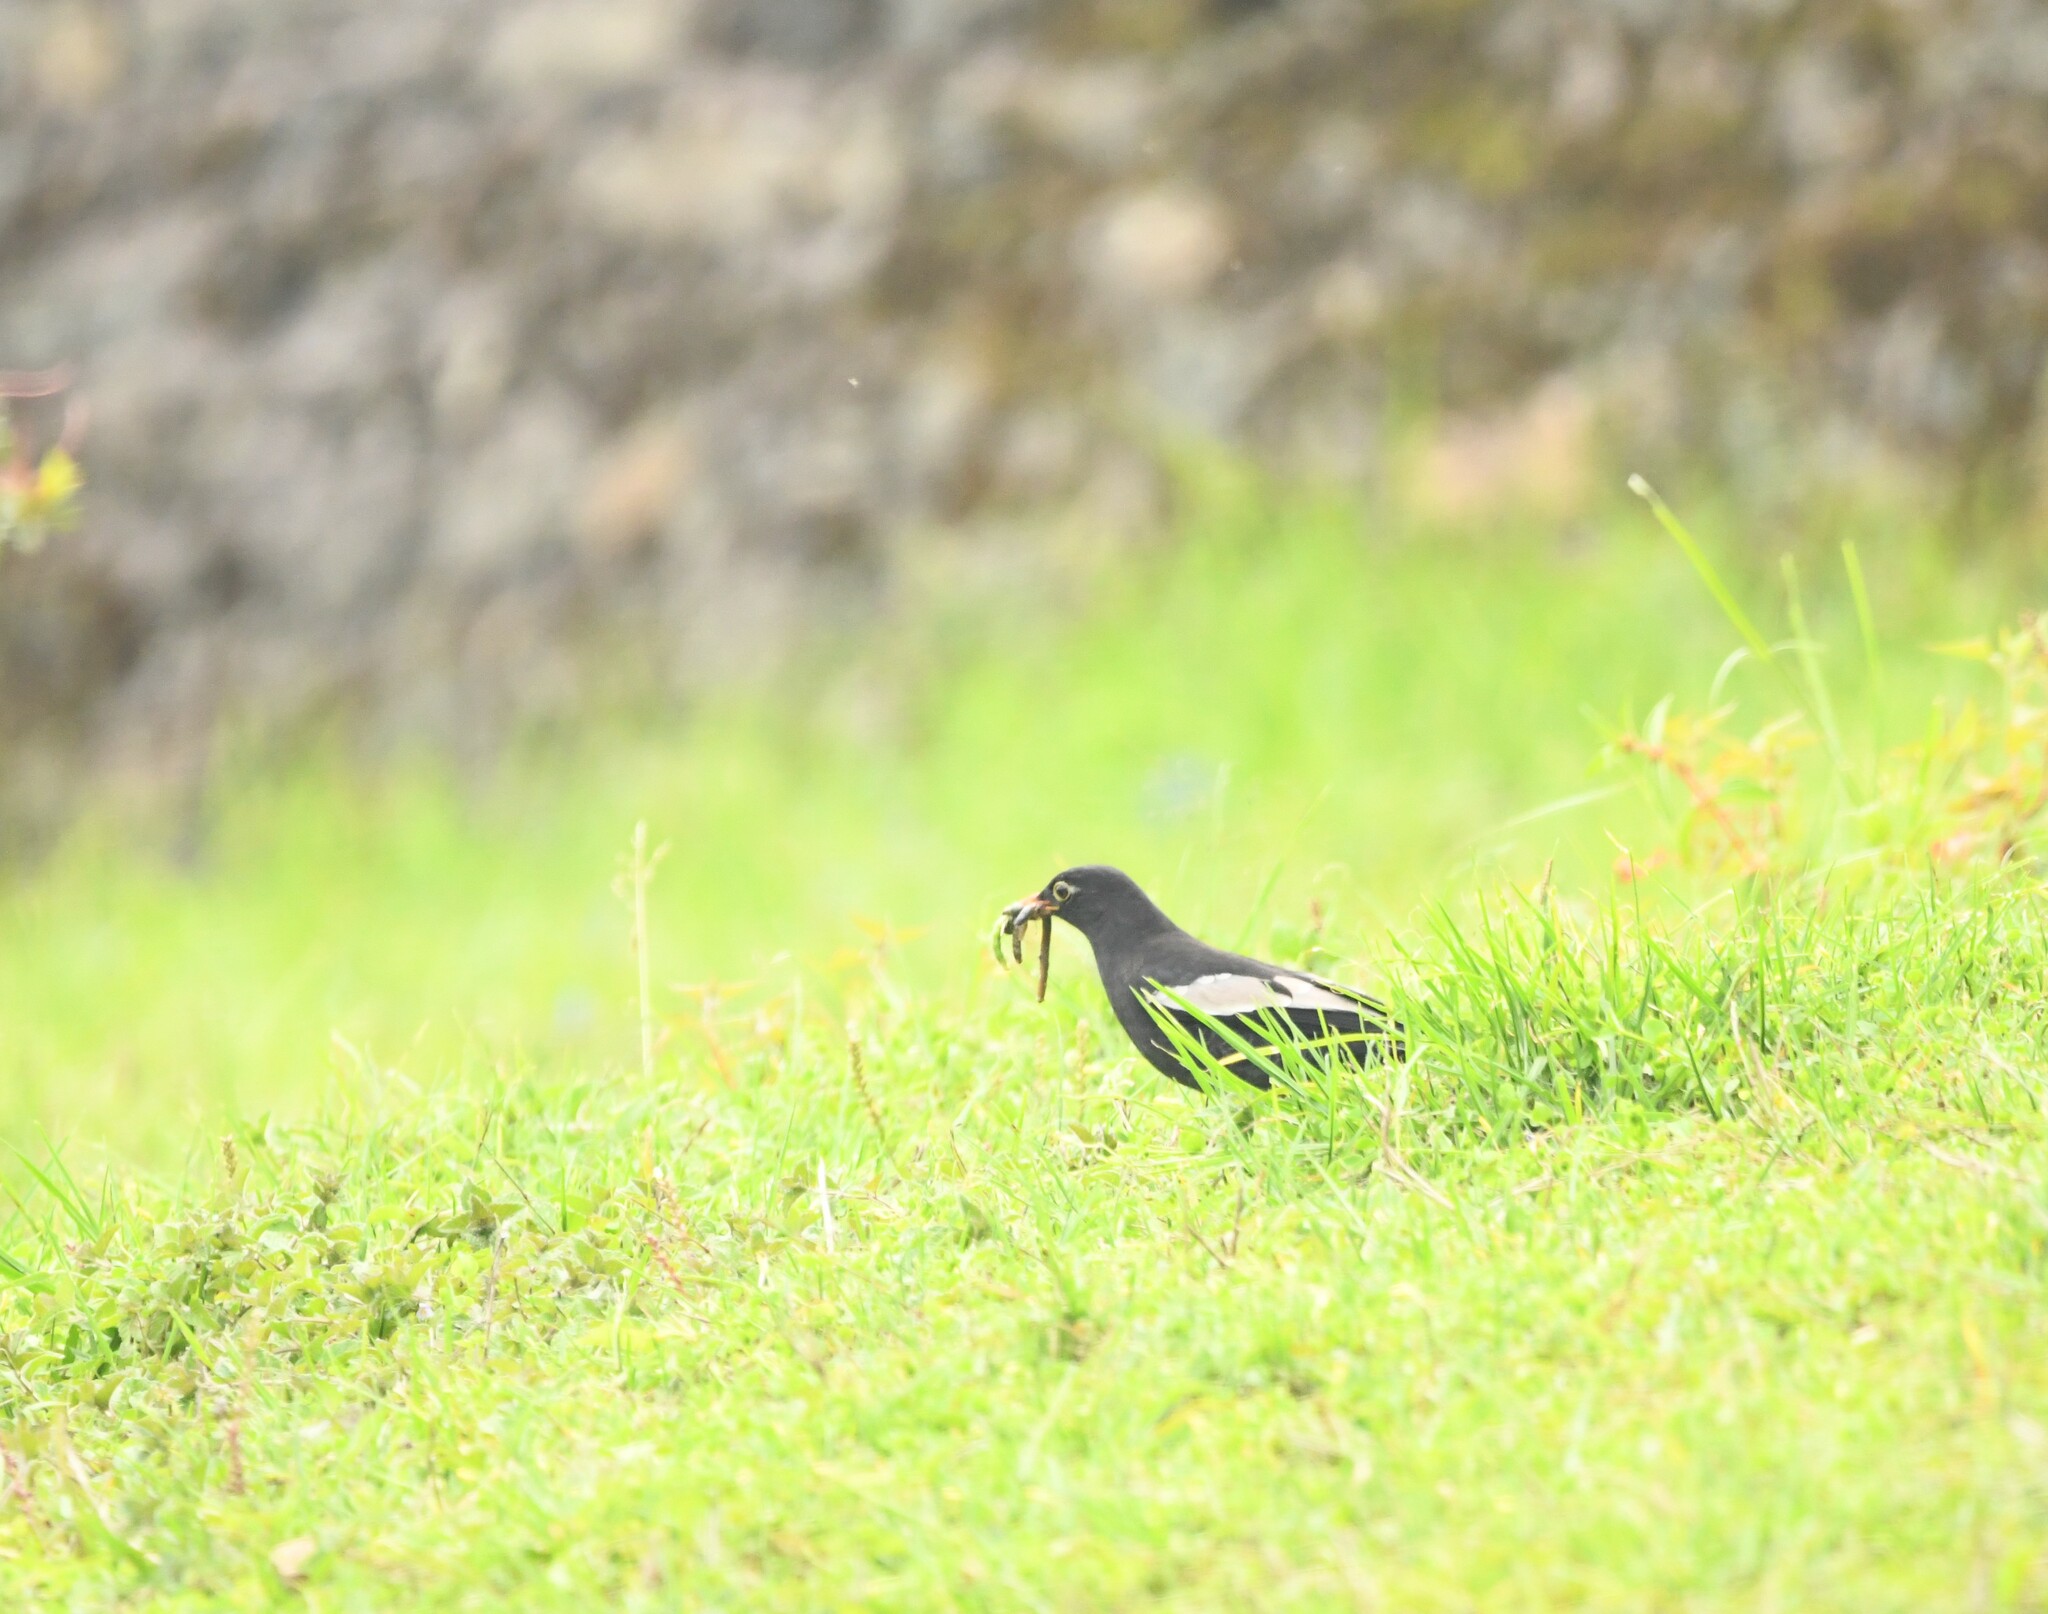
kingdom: Animalia
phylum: Chordata
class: Aves
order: Passeriformes
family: Turdidae
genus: Turdus
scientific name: Turdus boulboul
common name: Grey-winged blackbird
